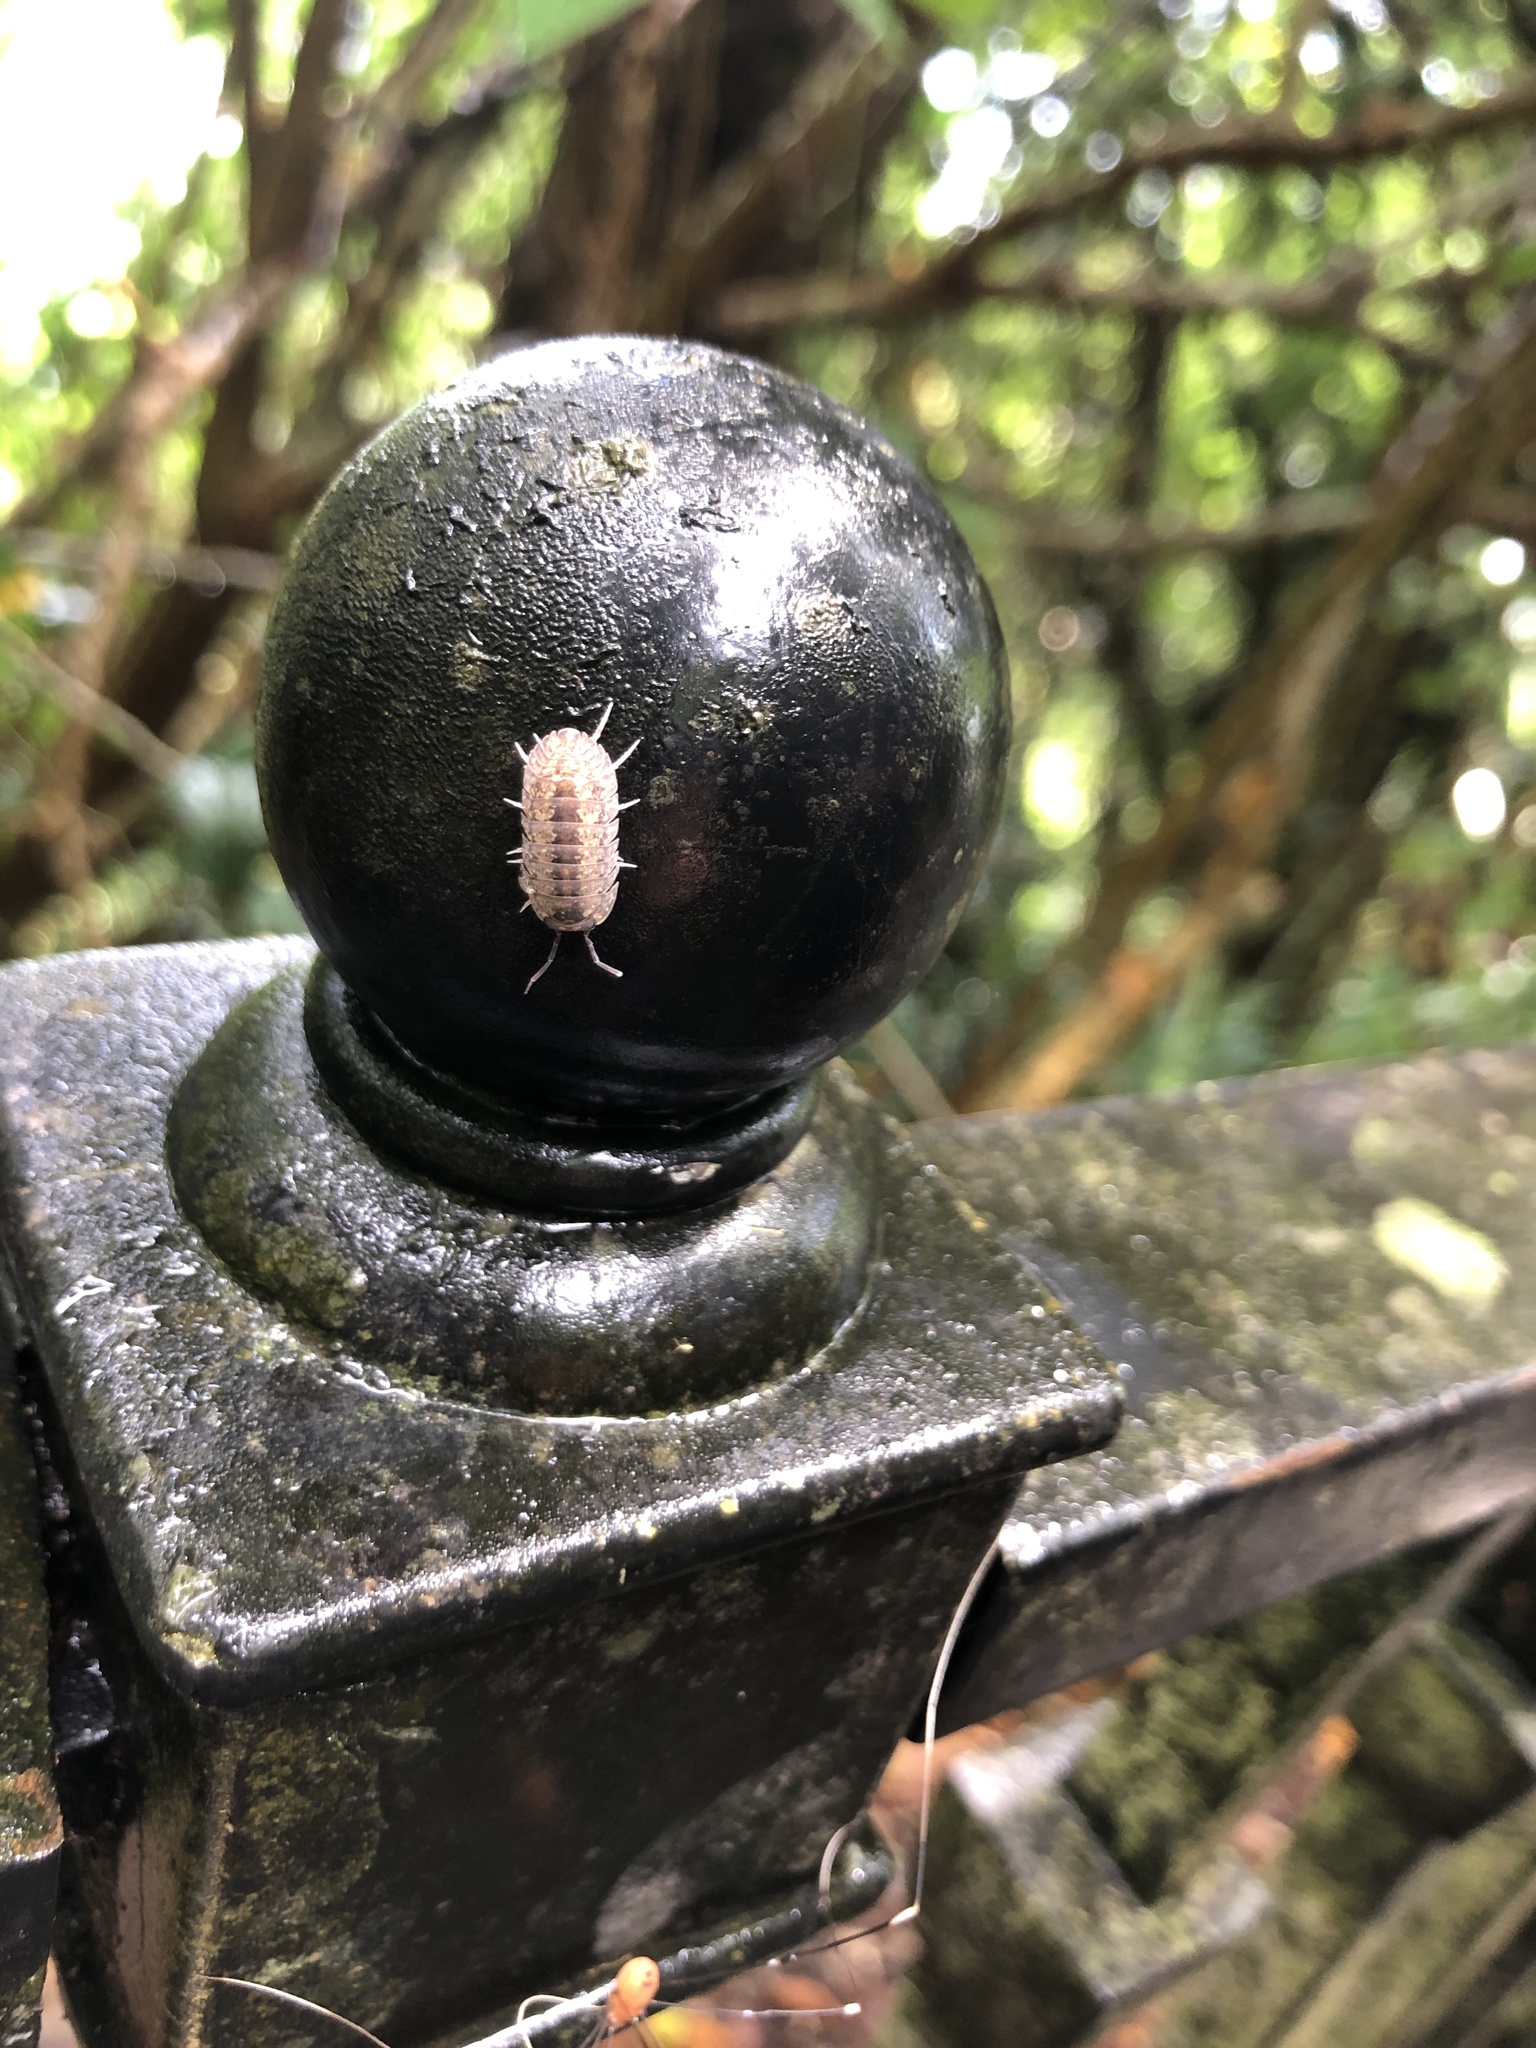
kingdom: Animalia
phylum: Arthropoda
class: Malacostraca
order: Isopoda
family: Armadillidae
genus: Dryadillo
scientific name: Dryadillo maculatus
